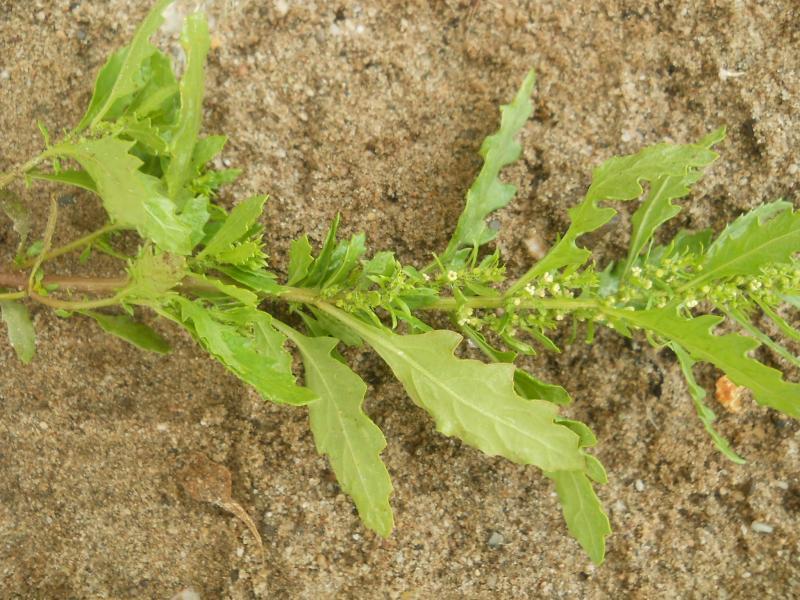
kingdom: Plantae
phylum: Tracheophyta
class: Magnoliopsida
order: Caryophyllales
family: Amaranthaceae
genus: Dysphania
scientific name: Dysphania ambrosioides
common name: Wormseed
